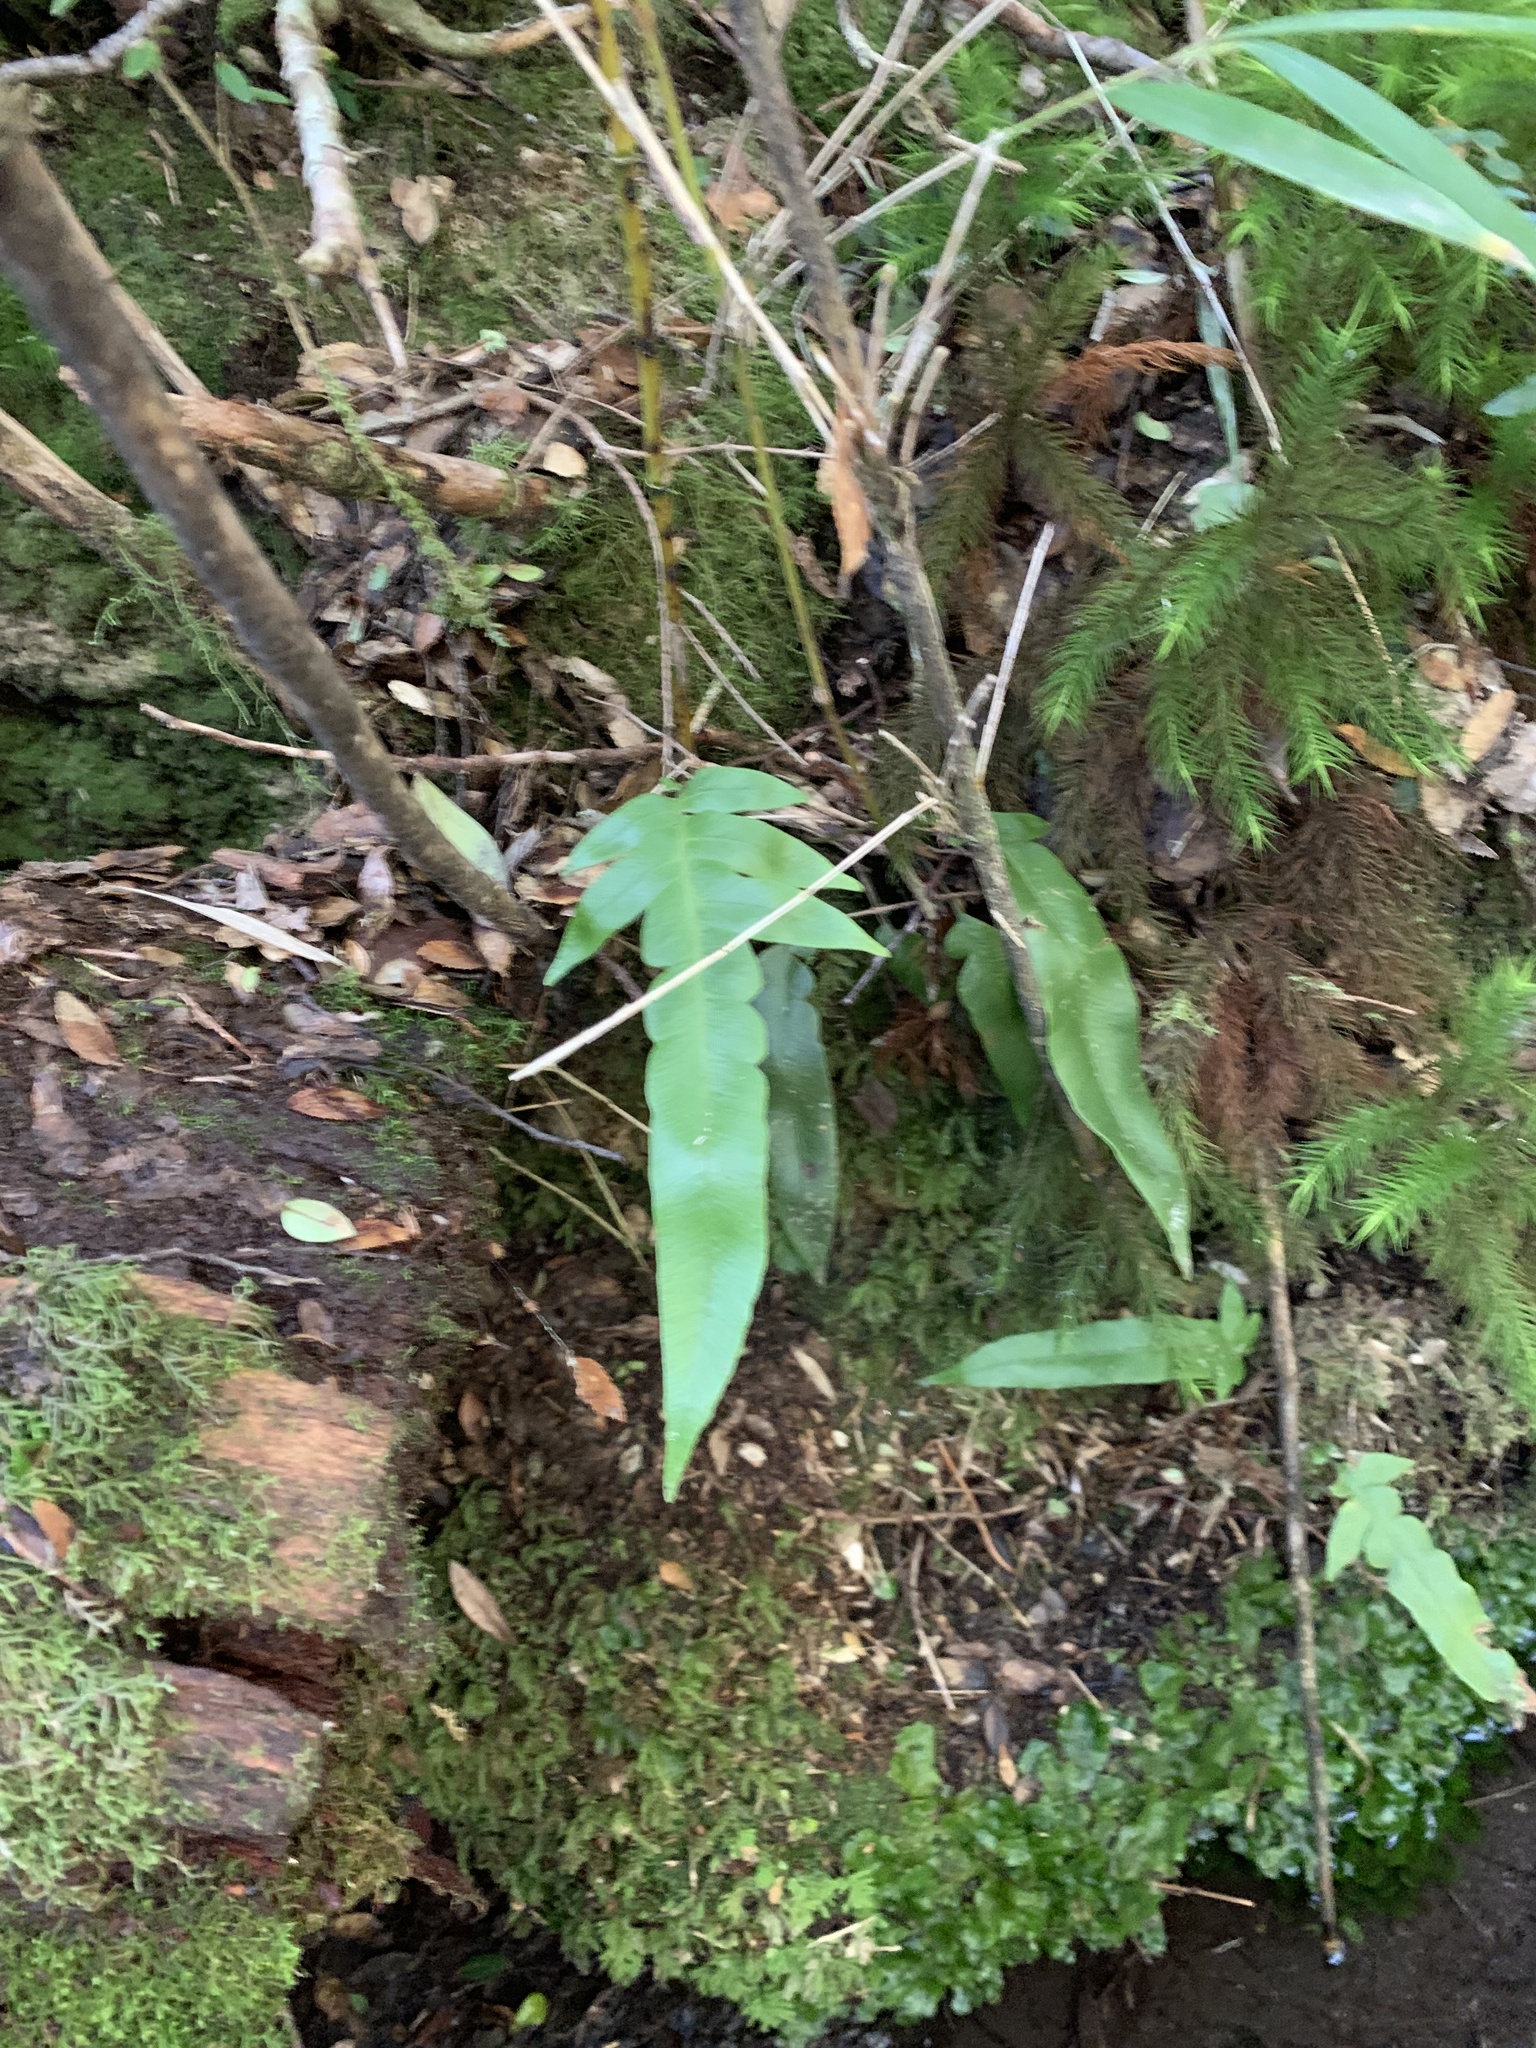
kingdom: Plantae
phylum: Tracheophyta
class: Polypodiopsida
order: Polypodiales
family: Polypodiaceae
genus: Synammia
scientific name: Synammia feuillei
